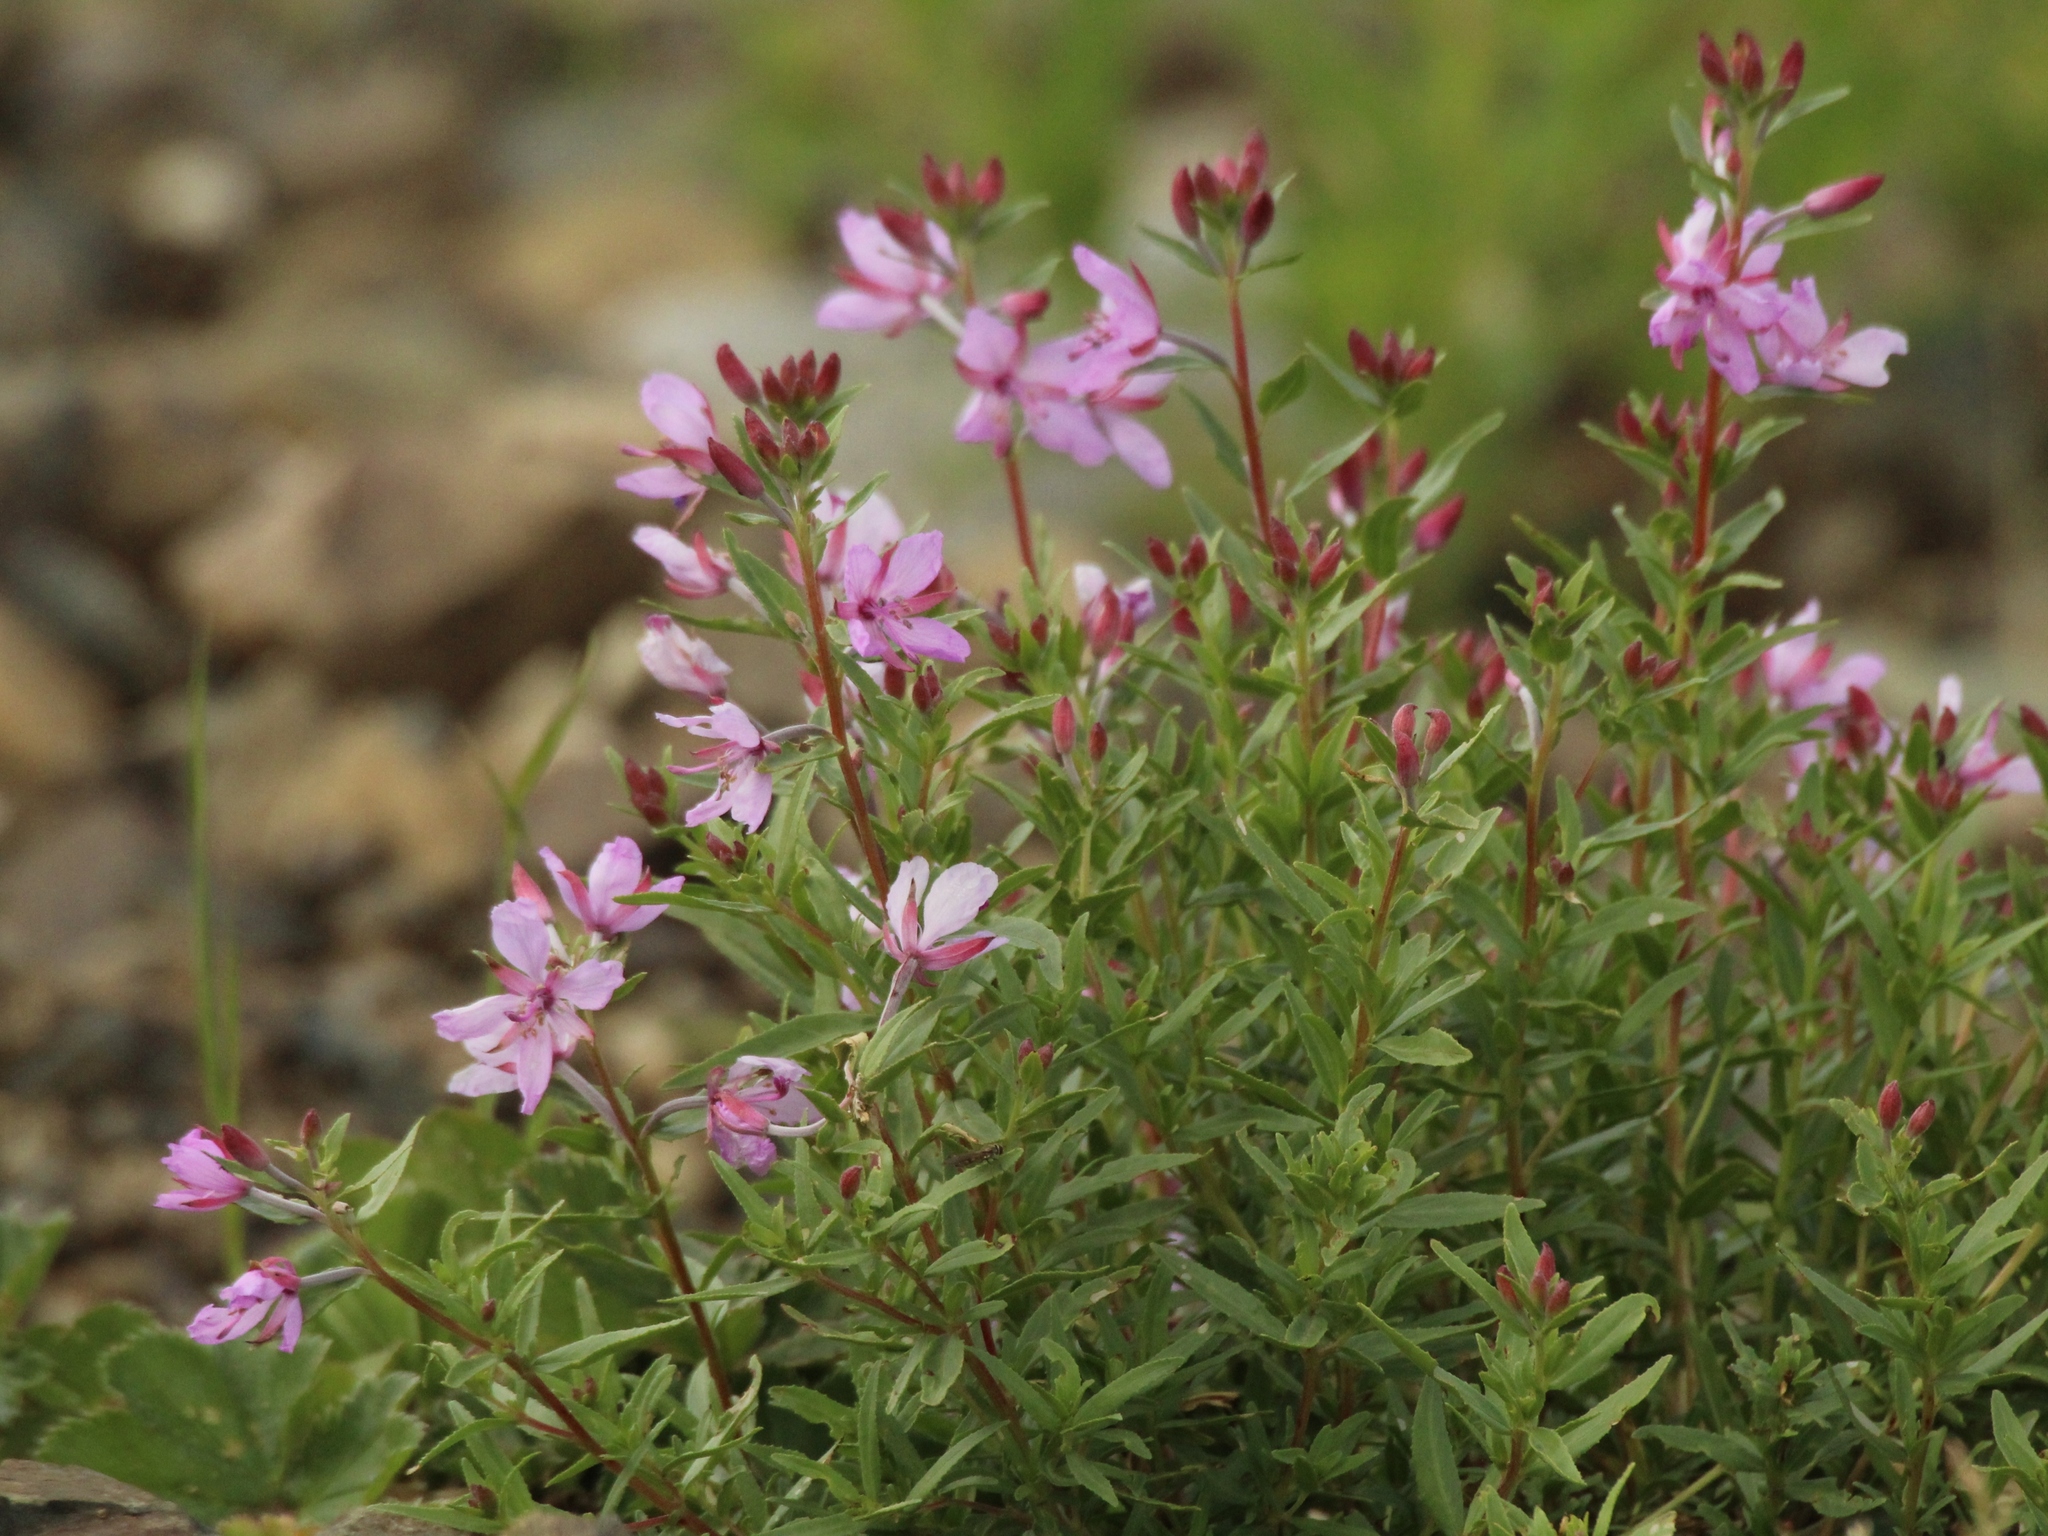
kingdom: Plantae
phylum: Tracheophyta
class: Magnoliopsida
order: Myrtales
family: Onagraceae
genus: Chamaenerion
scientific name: Chamaenerion colchicum
